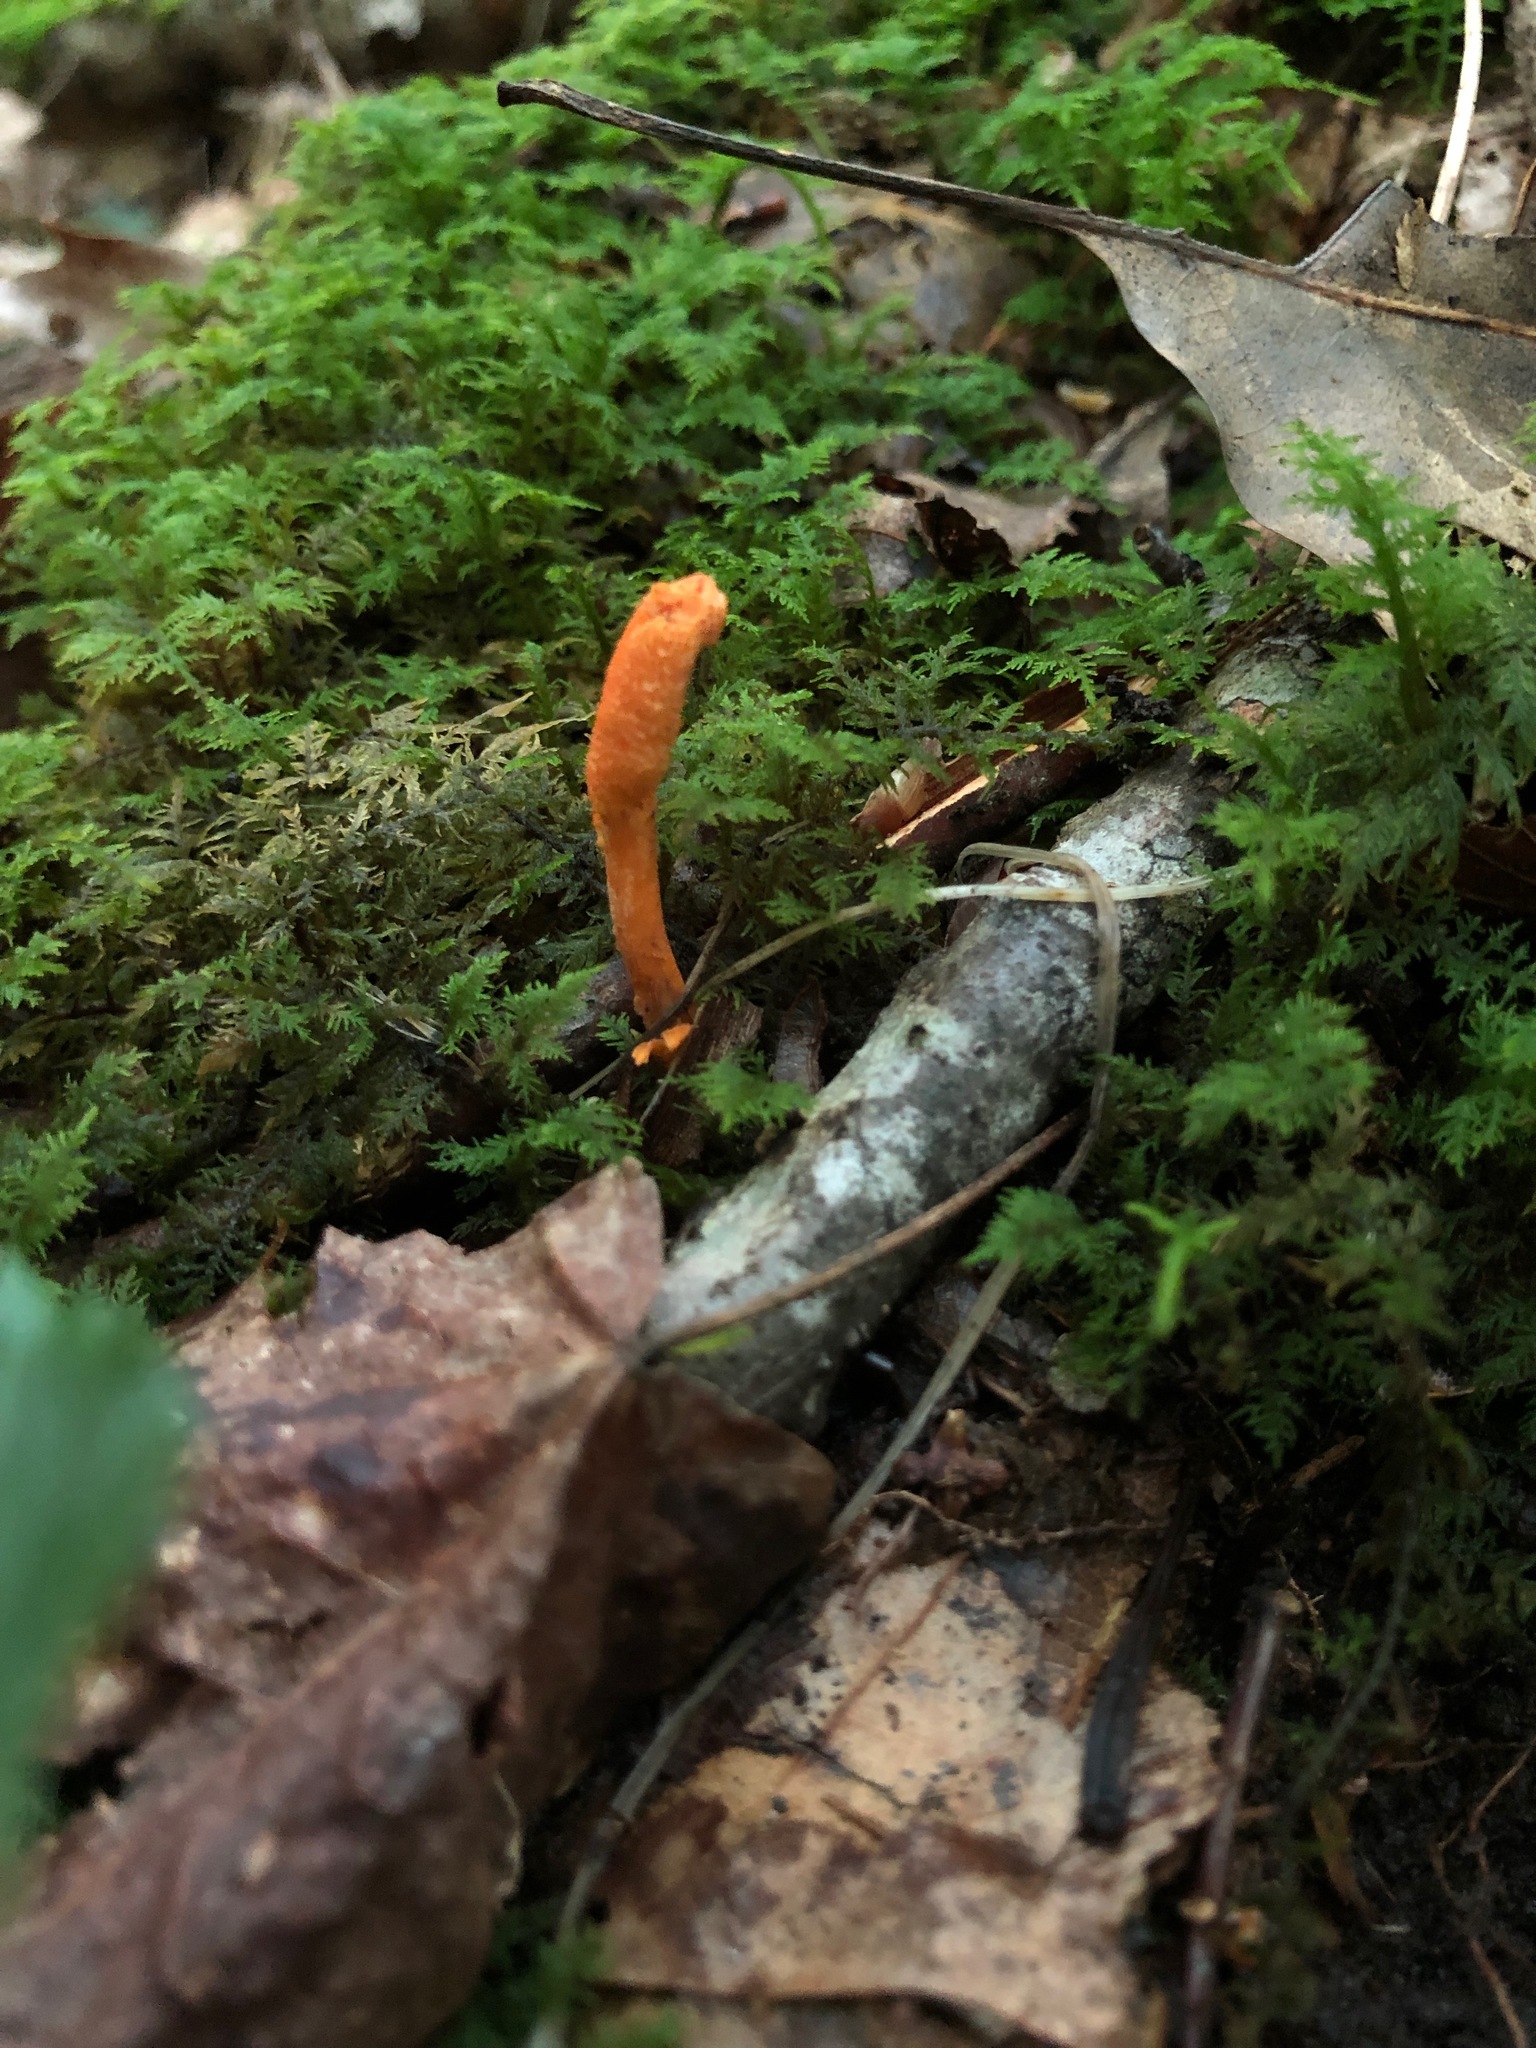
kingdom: Fungi
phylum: Ascomycota
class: Sordariomycetes
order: Hypocreales
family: Cordycipitaceae
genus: Cordyceps
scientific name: Cordyceps militaris
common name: Scarlet caterpillar fungus
